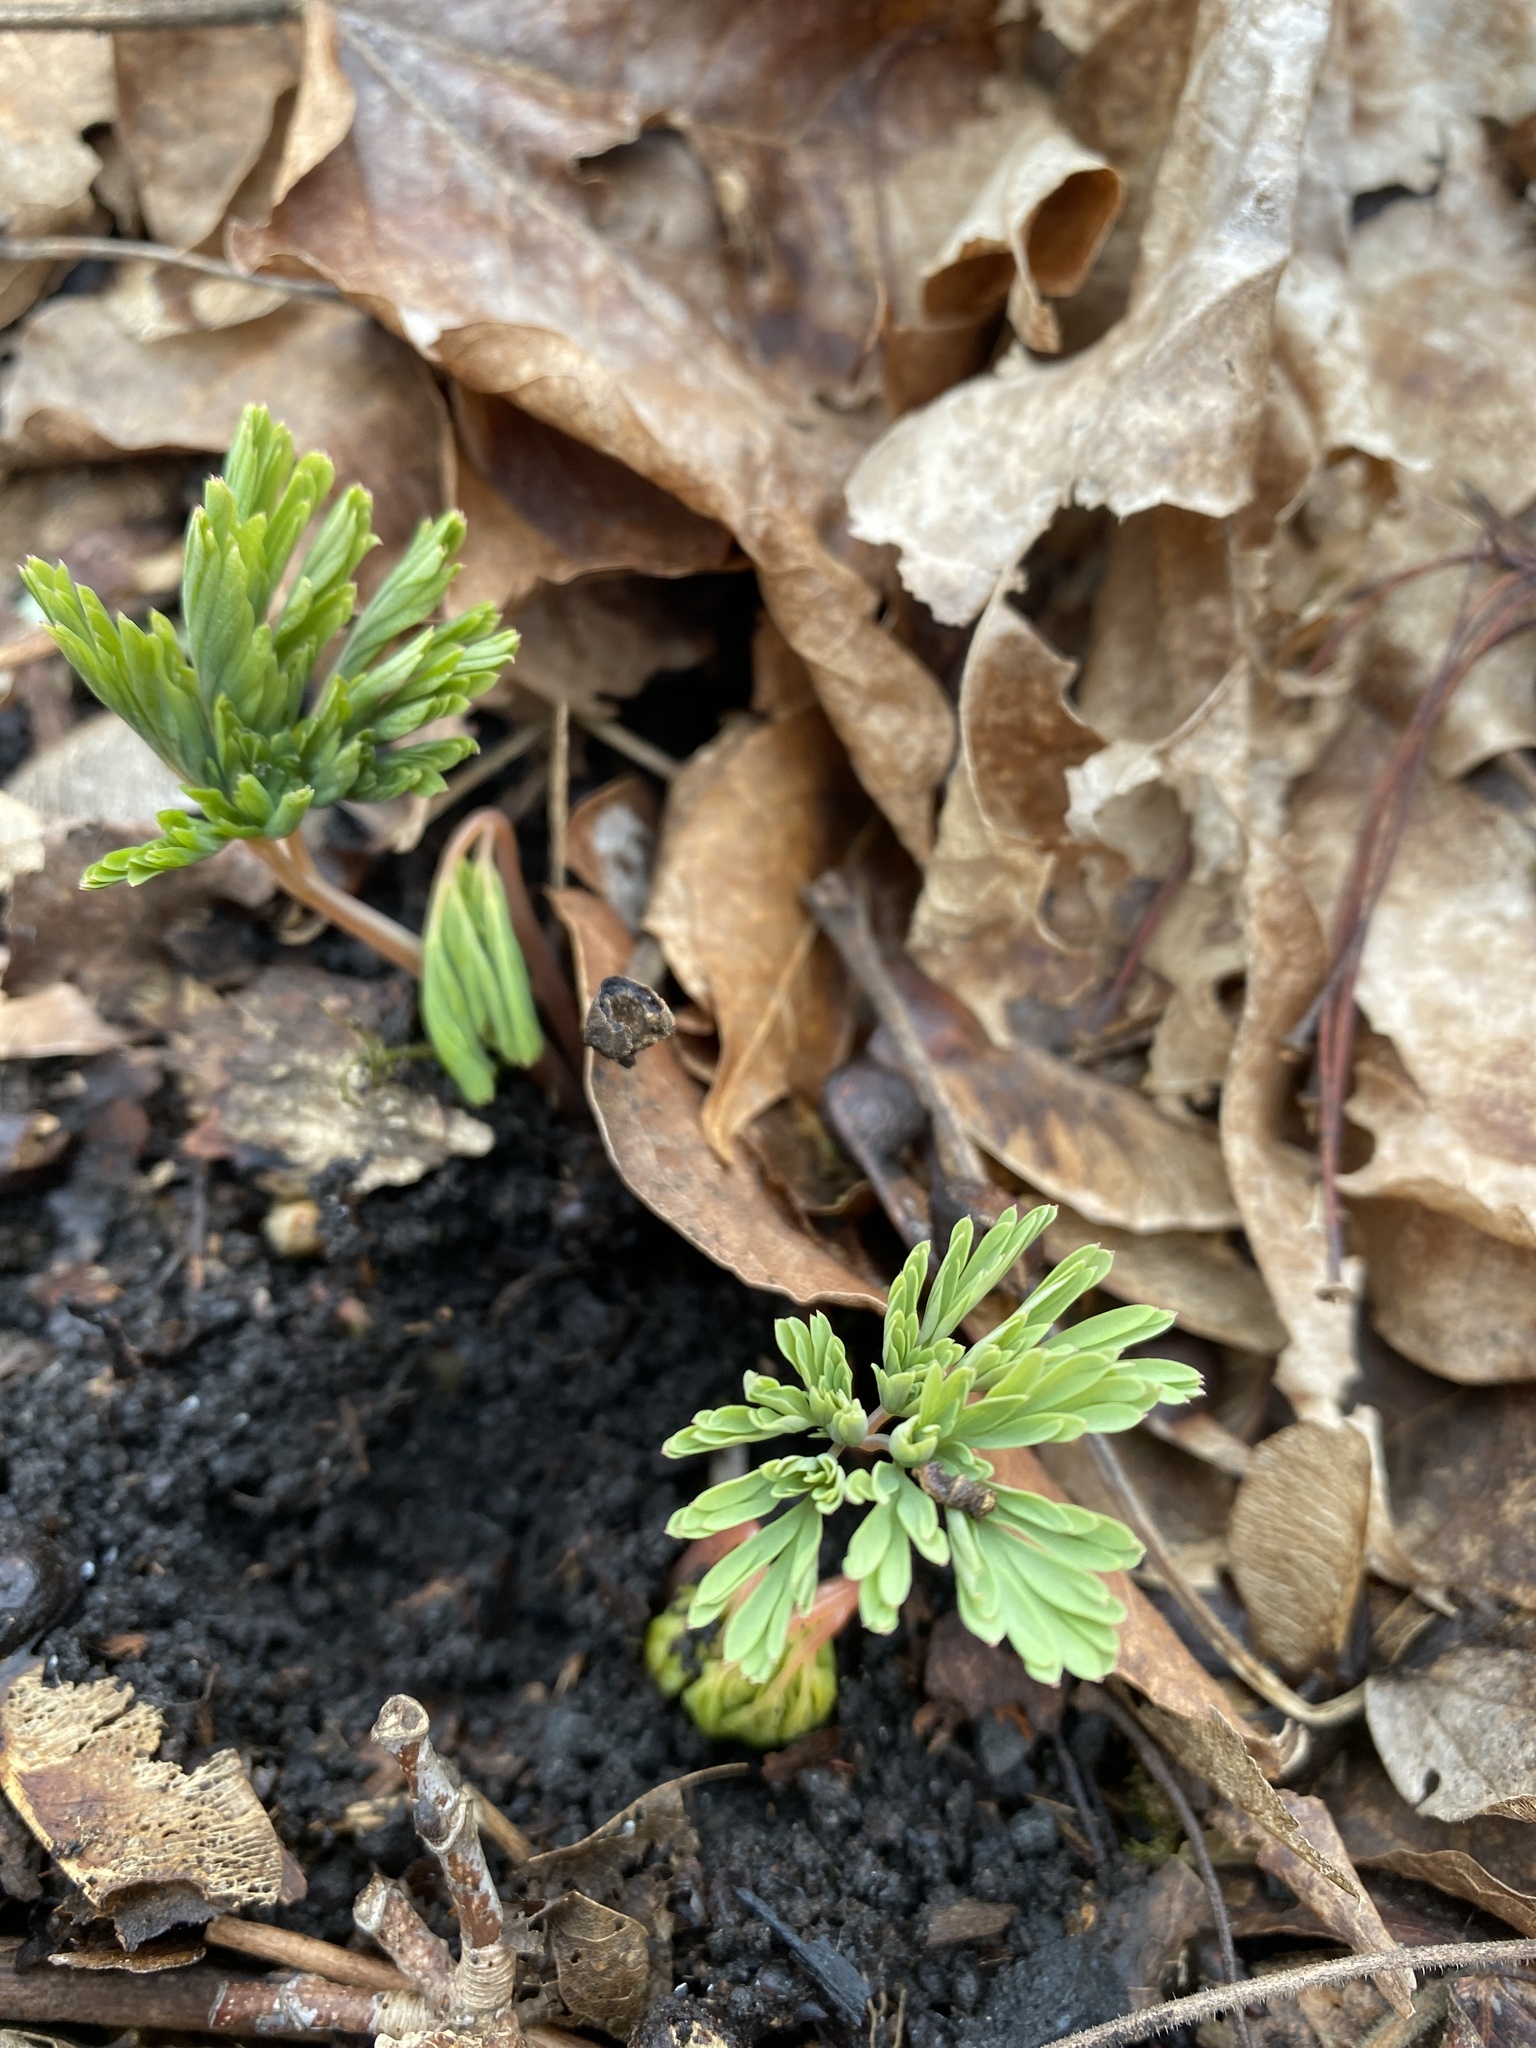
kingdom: Plantae
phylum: Tracheophyta
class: Magnoliopsida
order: Ranunculales
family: Papaveraceae
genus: Dicentra
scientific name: Dicentra cucullaria
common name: Dutchman's breeches
